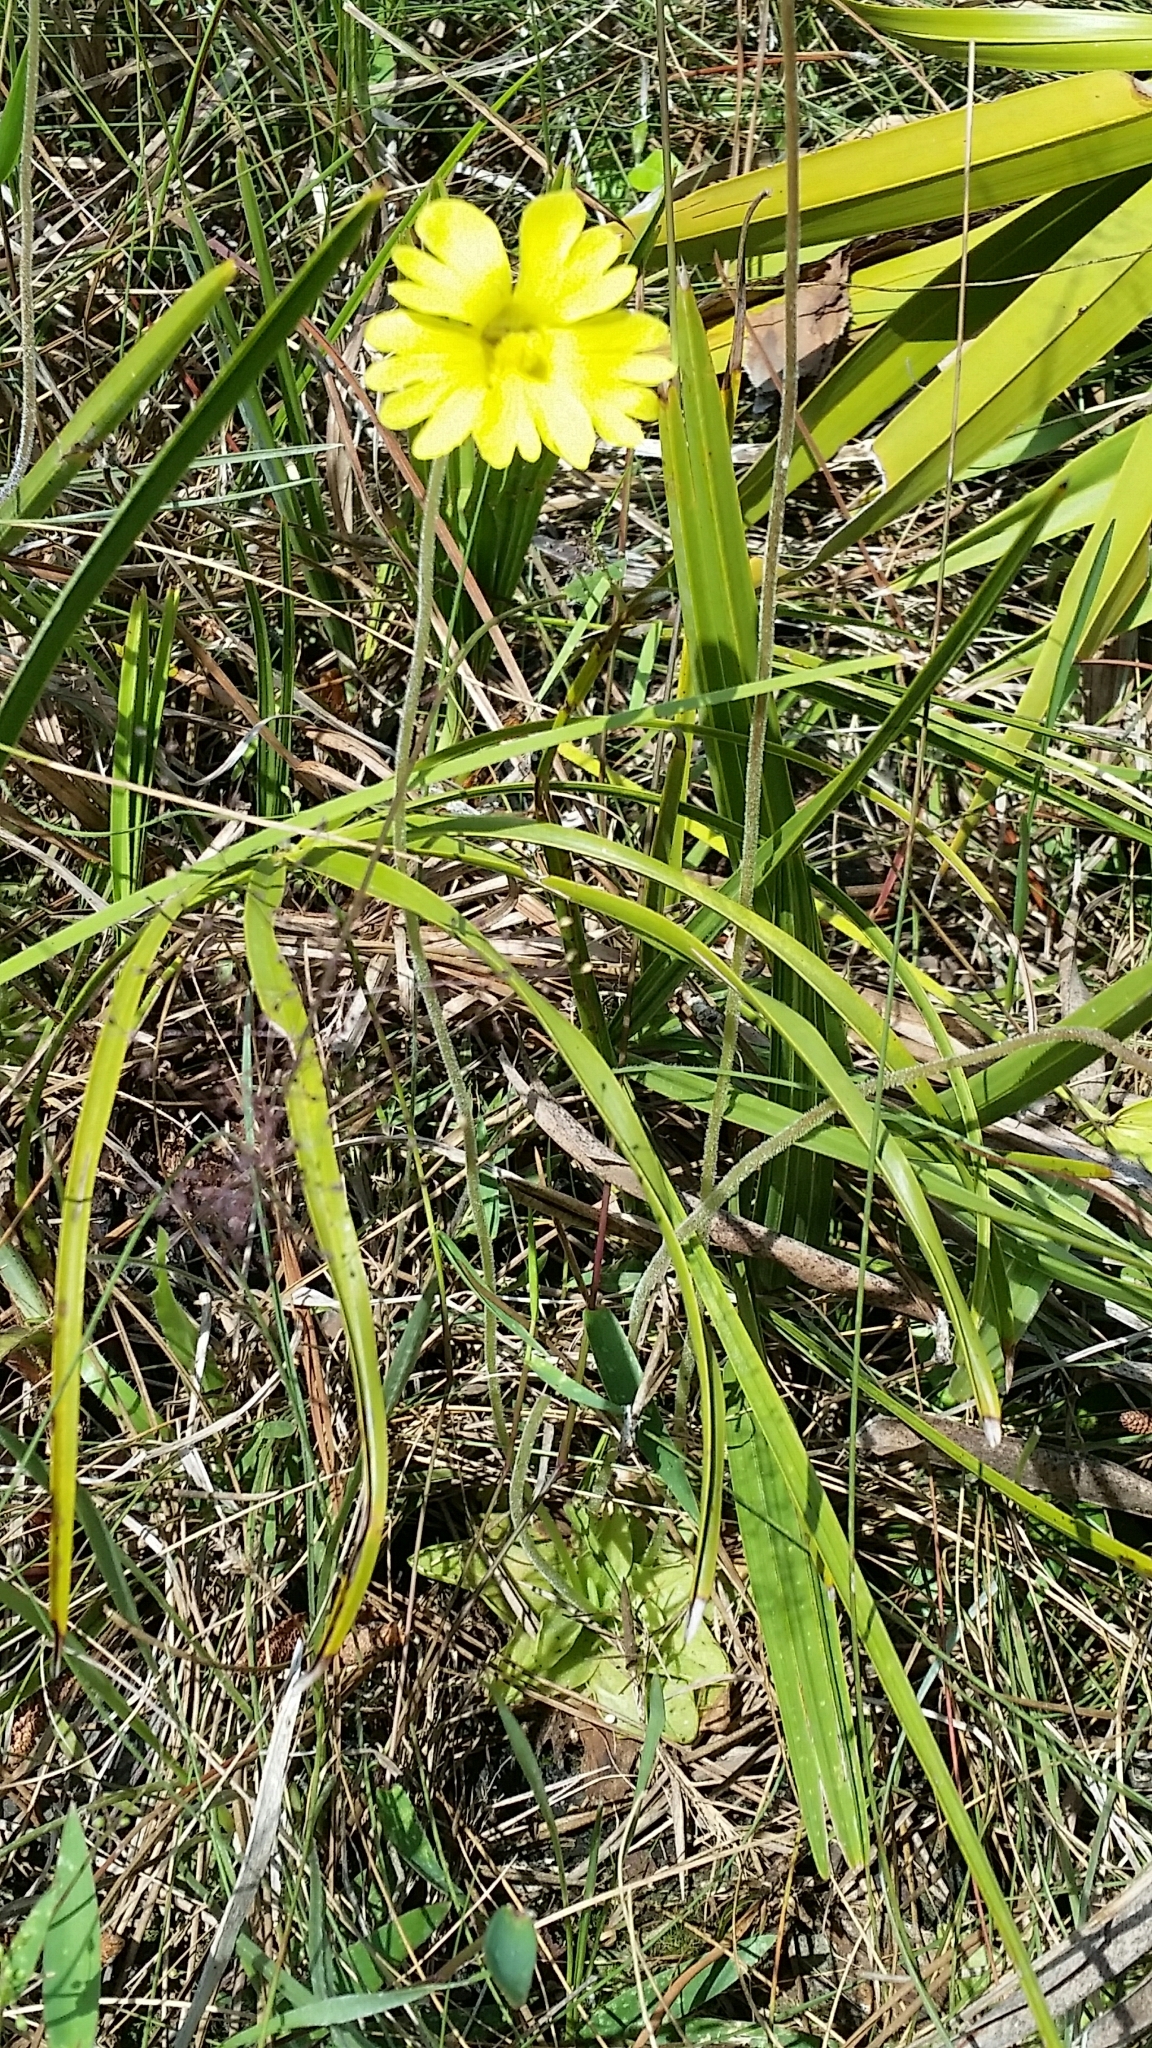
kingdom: Plantae
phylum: Tracheophyta
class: Magnoliopsida
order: Lamiales
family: Lentibulariaceae
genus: Pinguicula
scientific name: Pinguicula lutea
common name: Yellow butterwort
